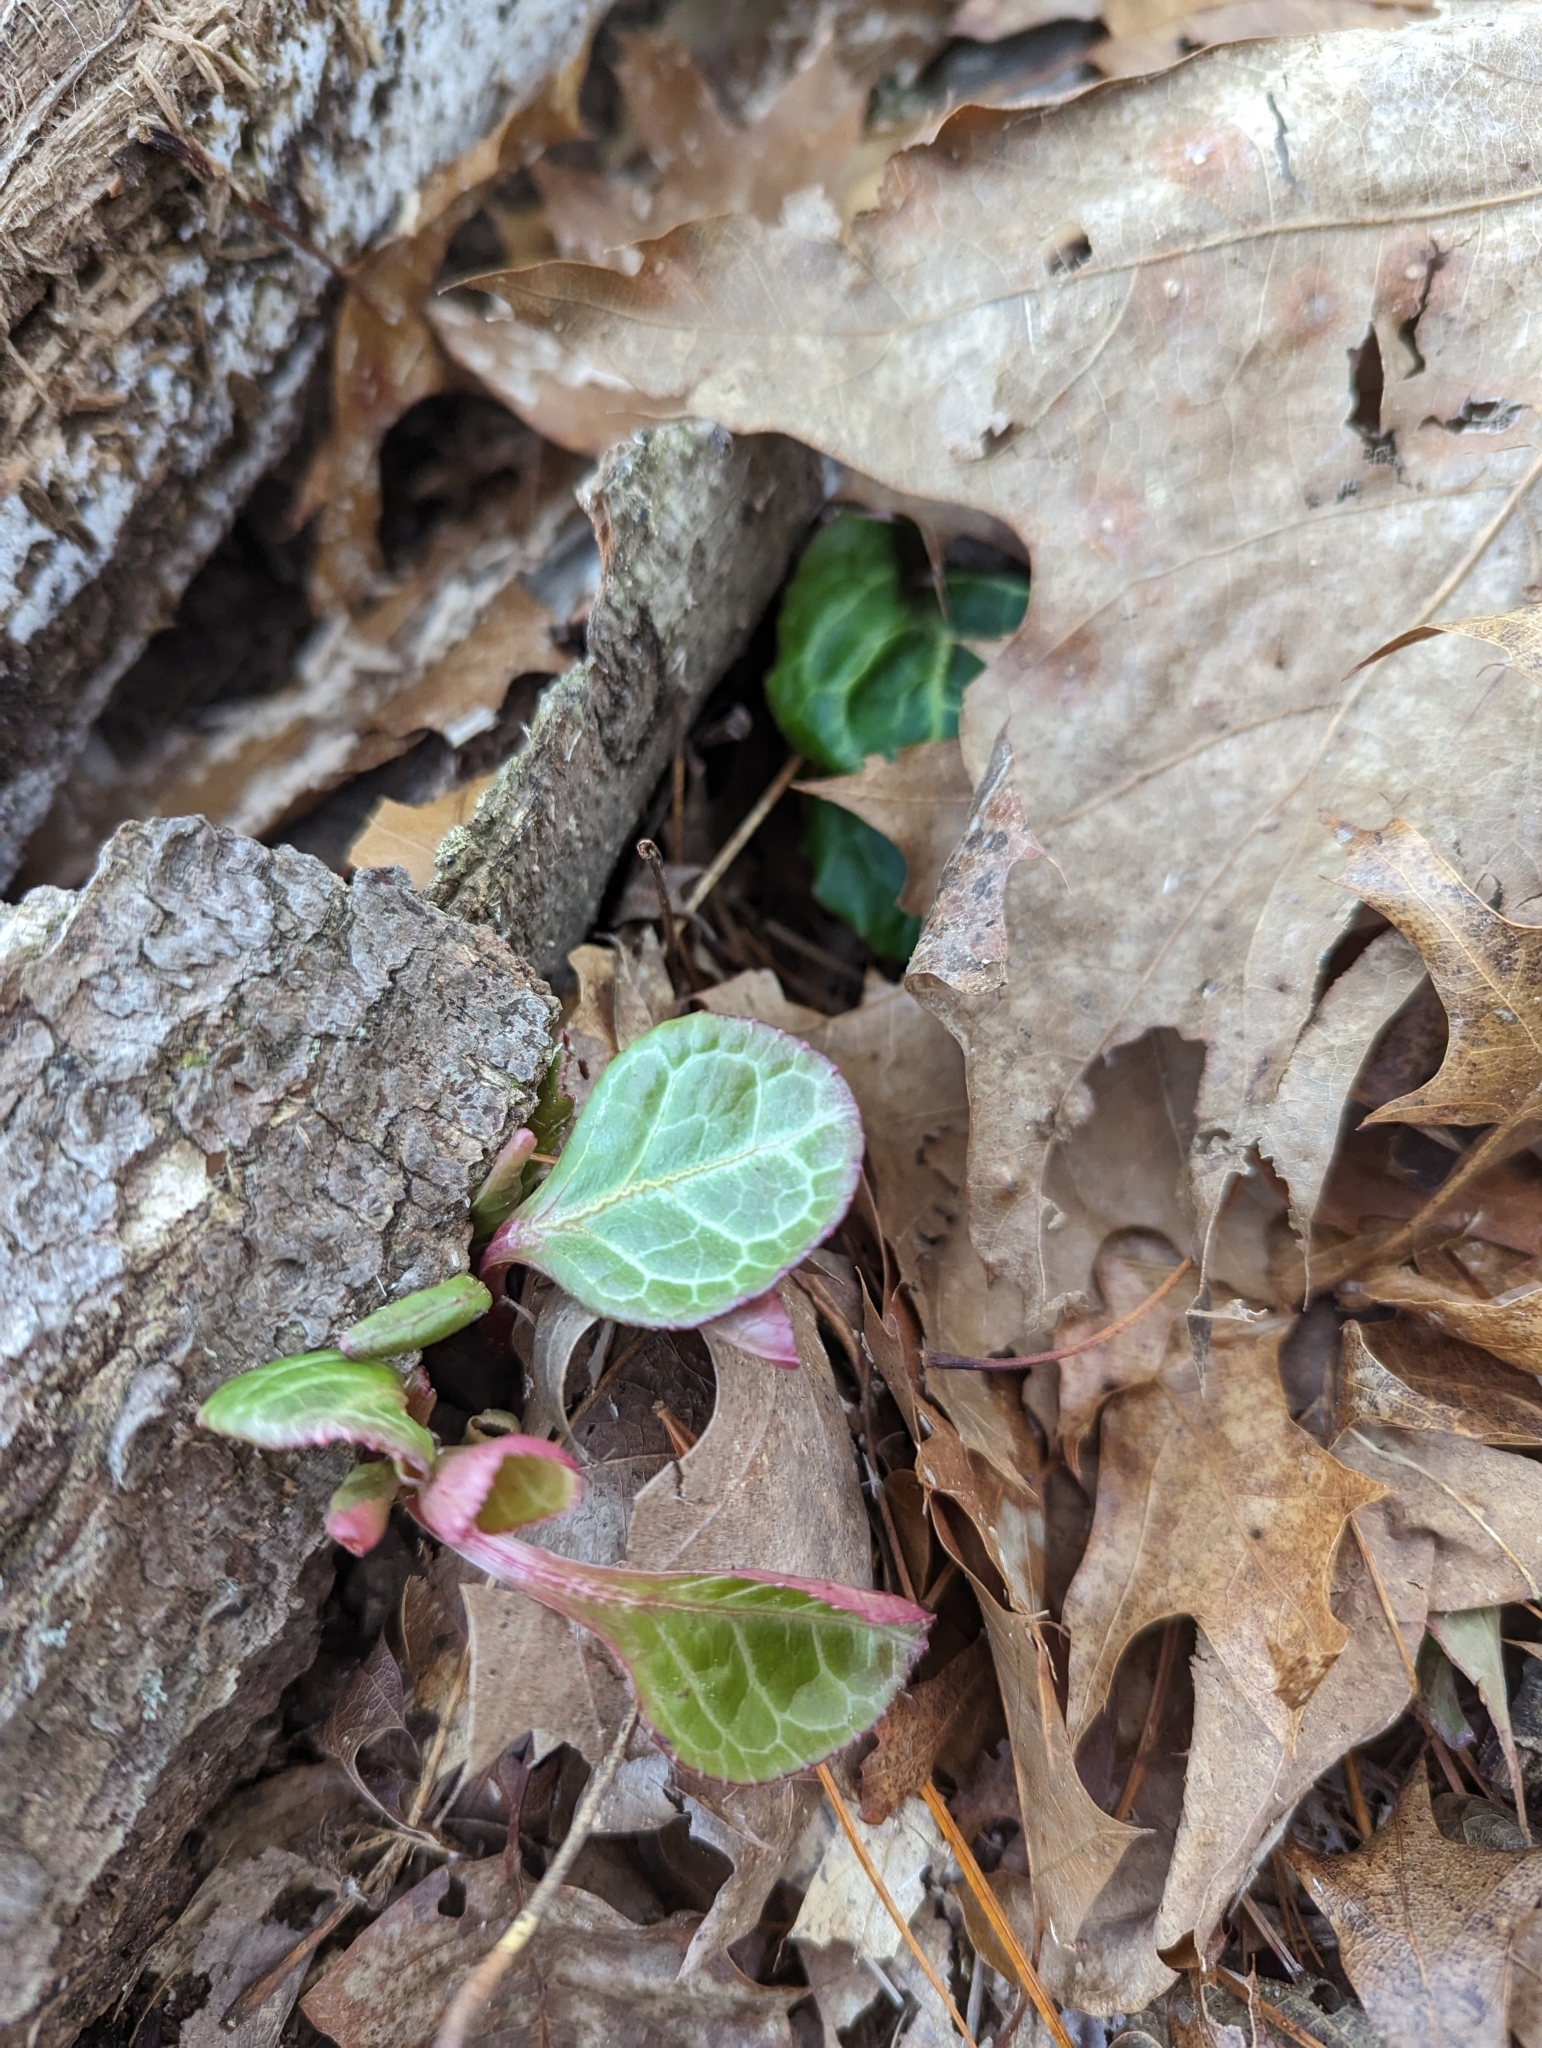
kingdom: Plantae
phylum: Tracheophyta
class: Magnoliopsida
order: Ericales
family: Ericaceae
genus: Pyrola
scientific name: Pyrola americana
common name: American wintergreen
